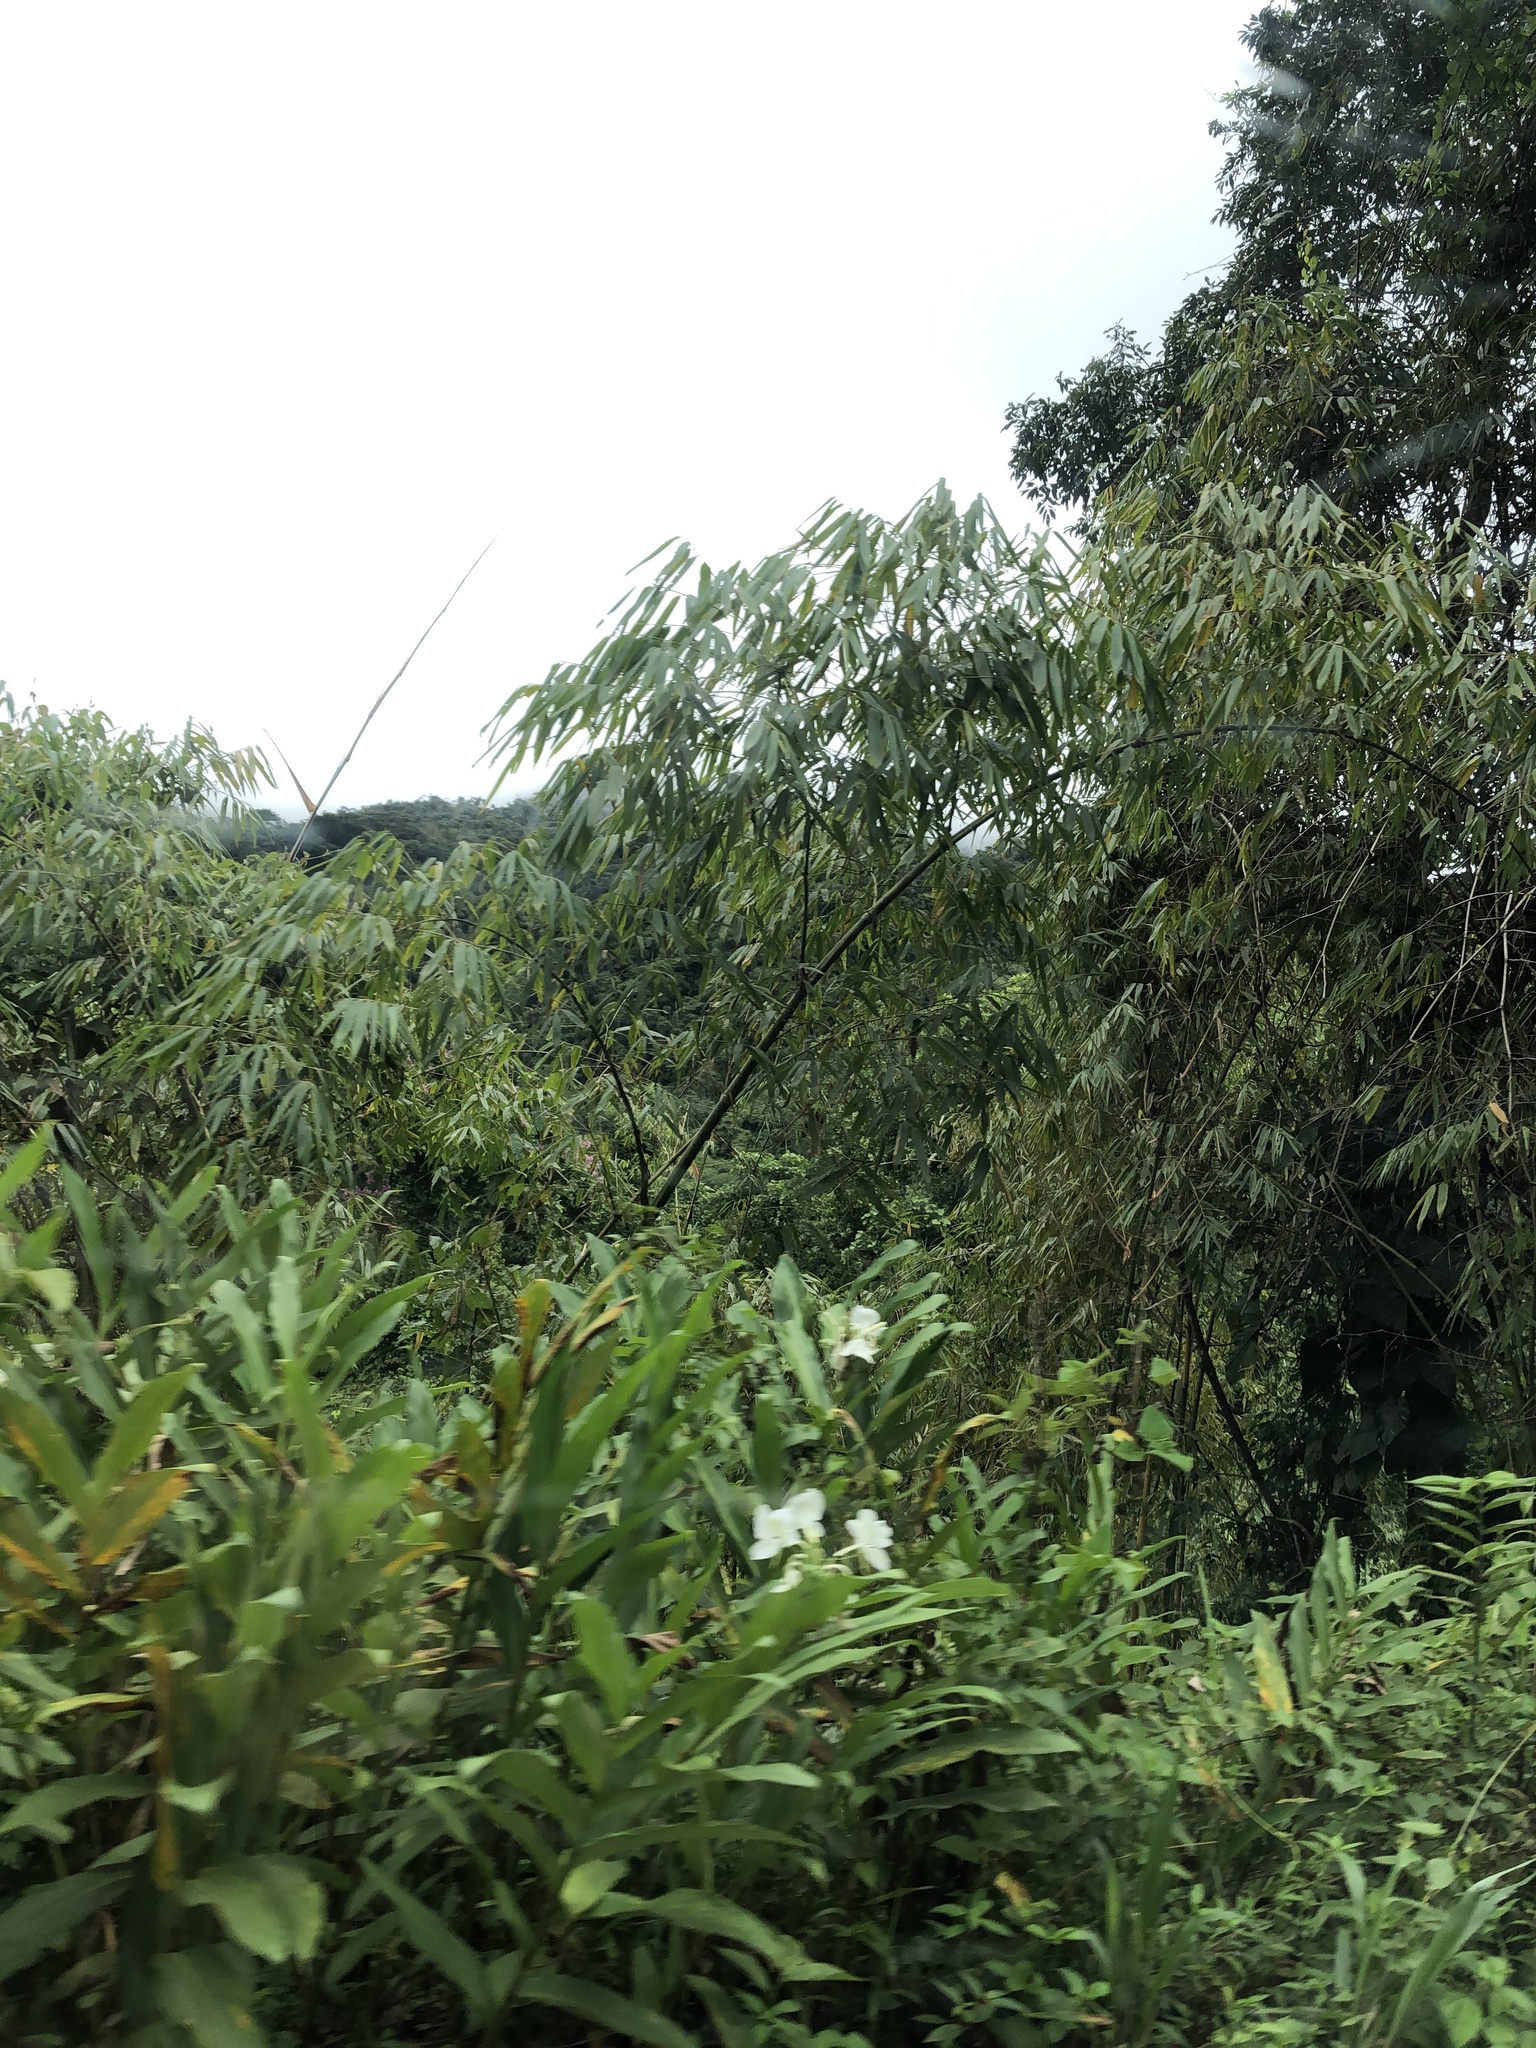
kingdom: Plantae
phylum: Tracheophyta
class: Liliopsida
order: Zingiberales
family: Zingiberaceae
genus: Hedychium
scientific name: Hedychium coronarium
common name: White garland-lily
